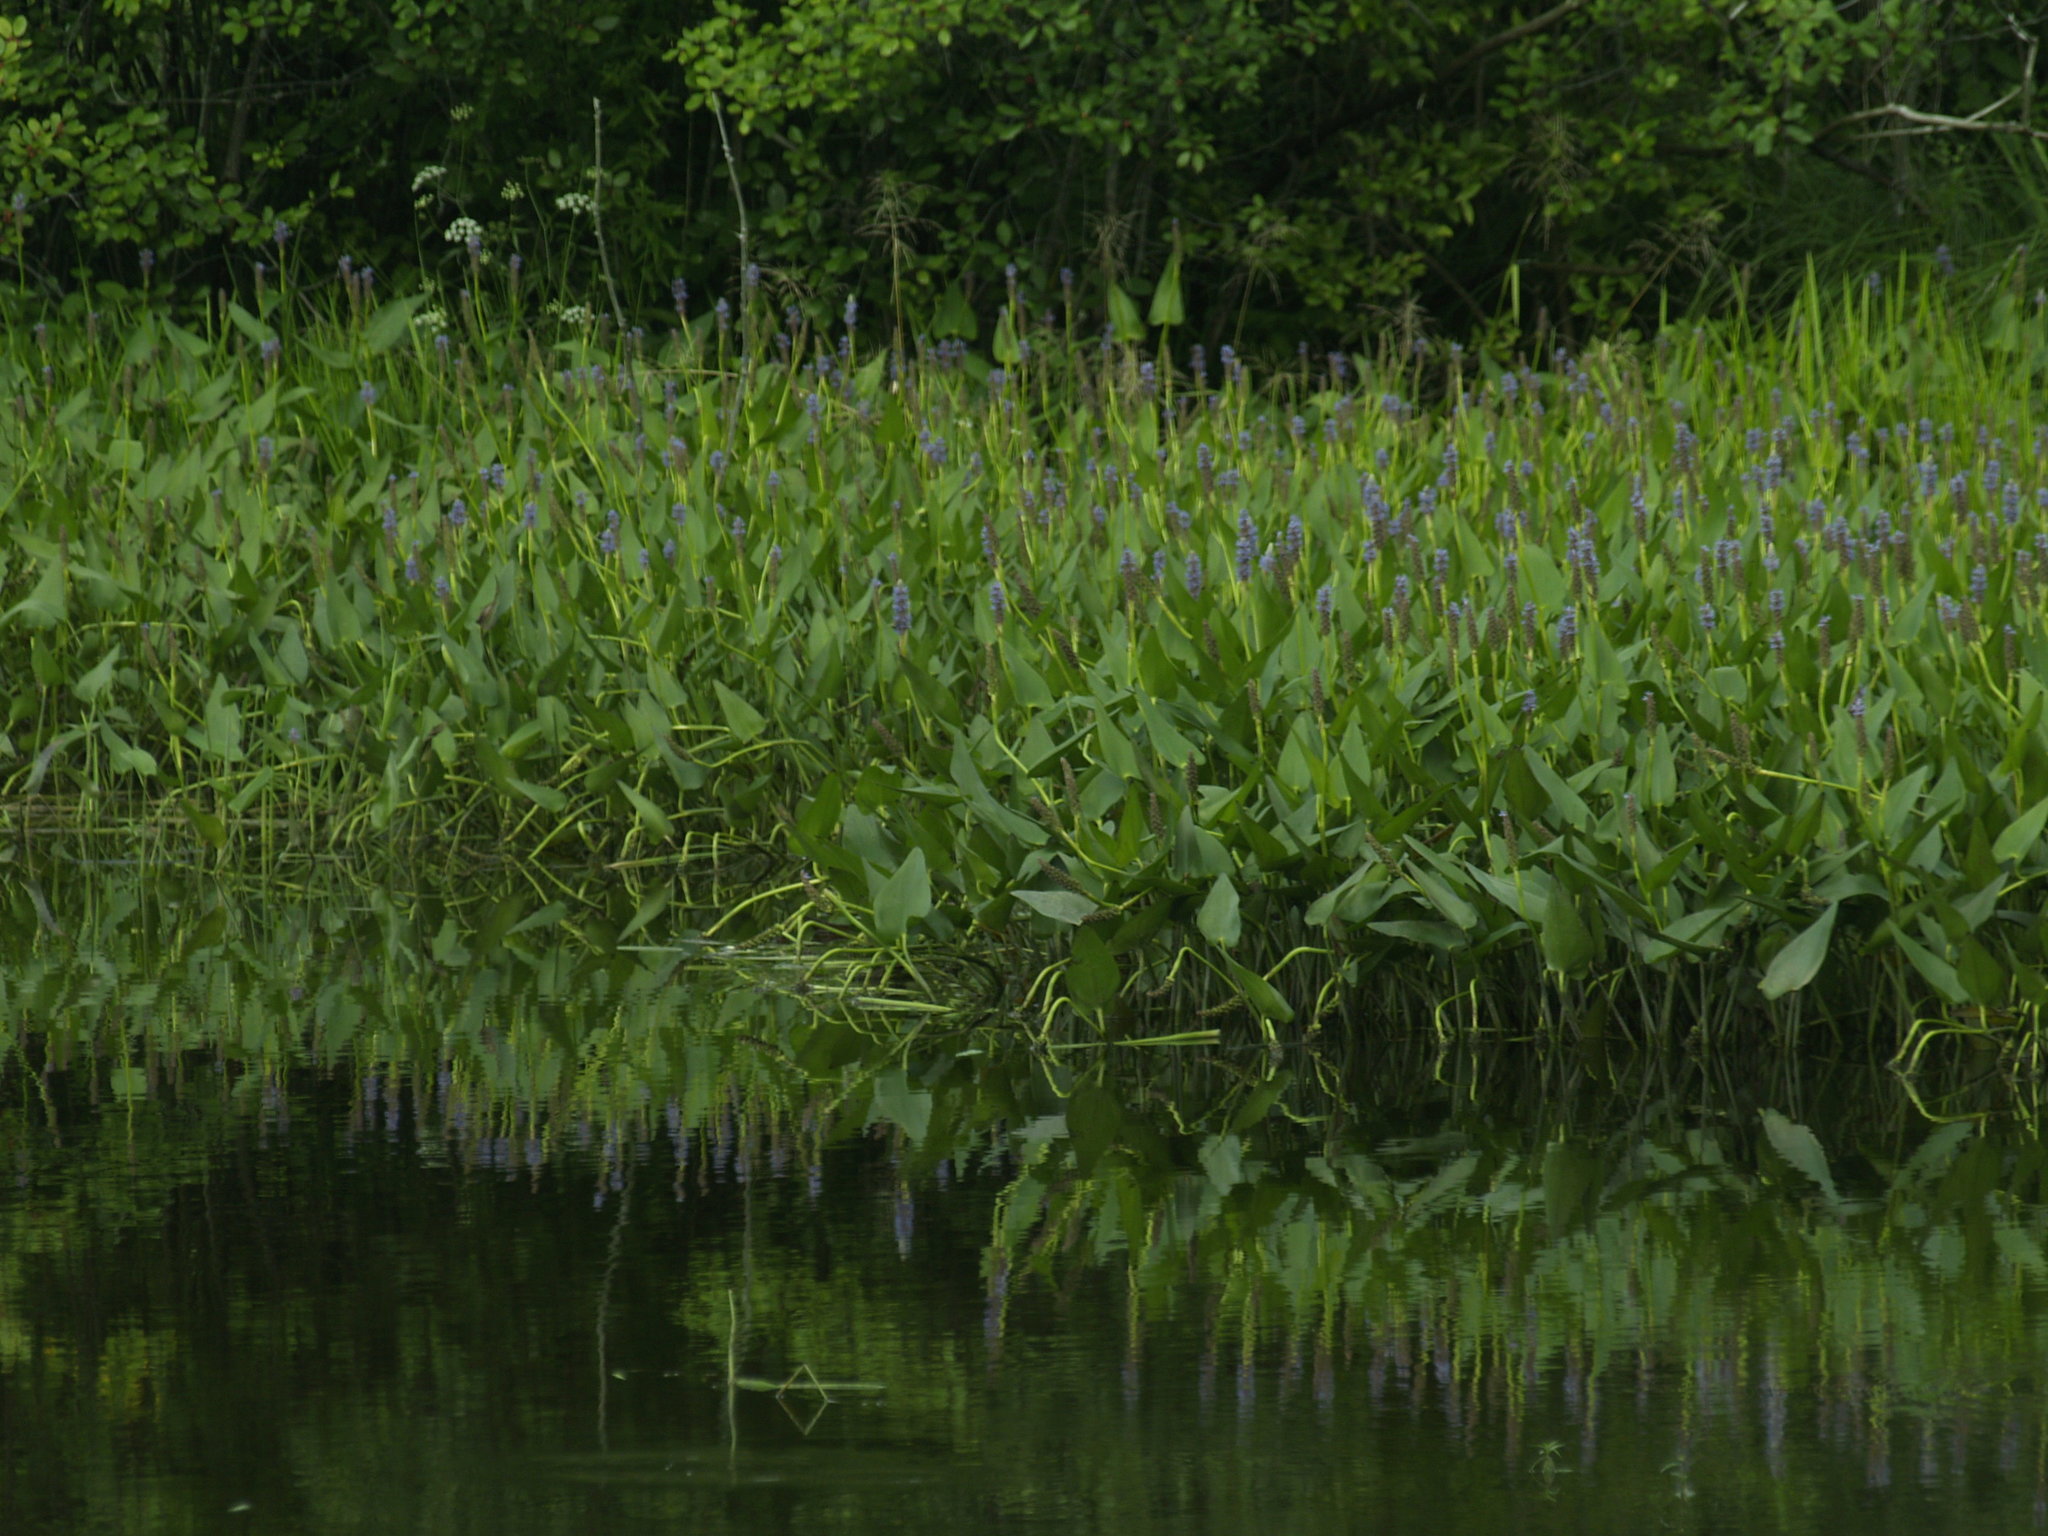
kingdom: Plantae
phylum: Tracheophyta
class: Liliopsida
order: Commelinales
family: Pontederiaceae
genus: Pontederia
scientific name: Pontederia cordata
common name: Pickerelweed
